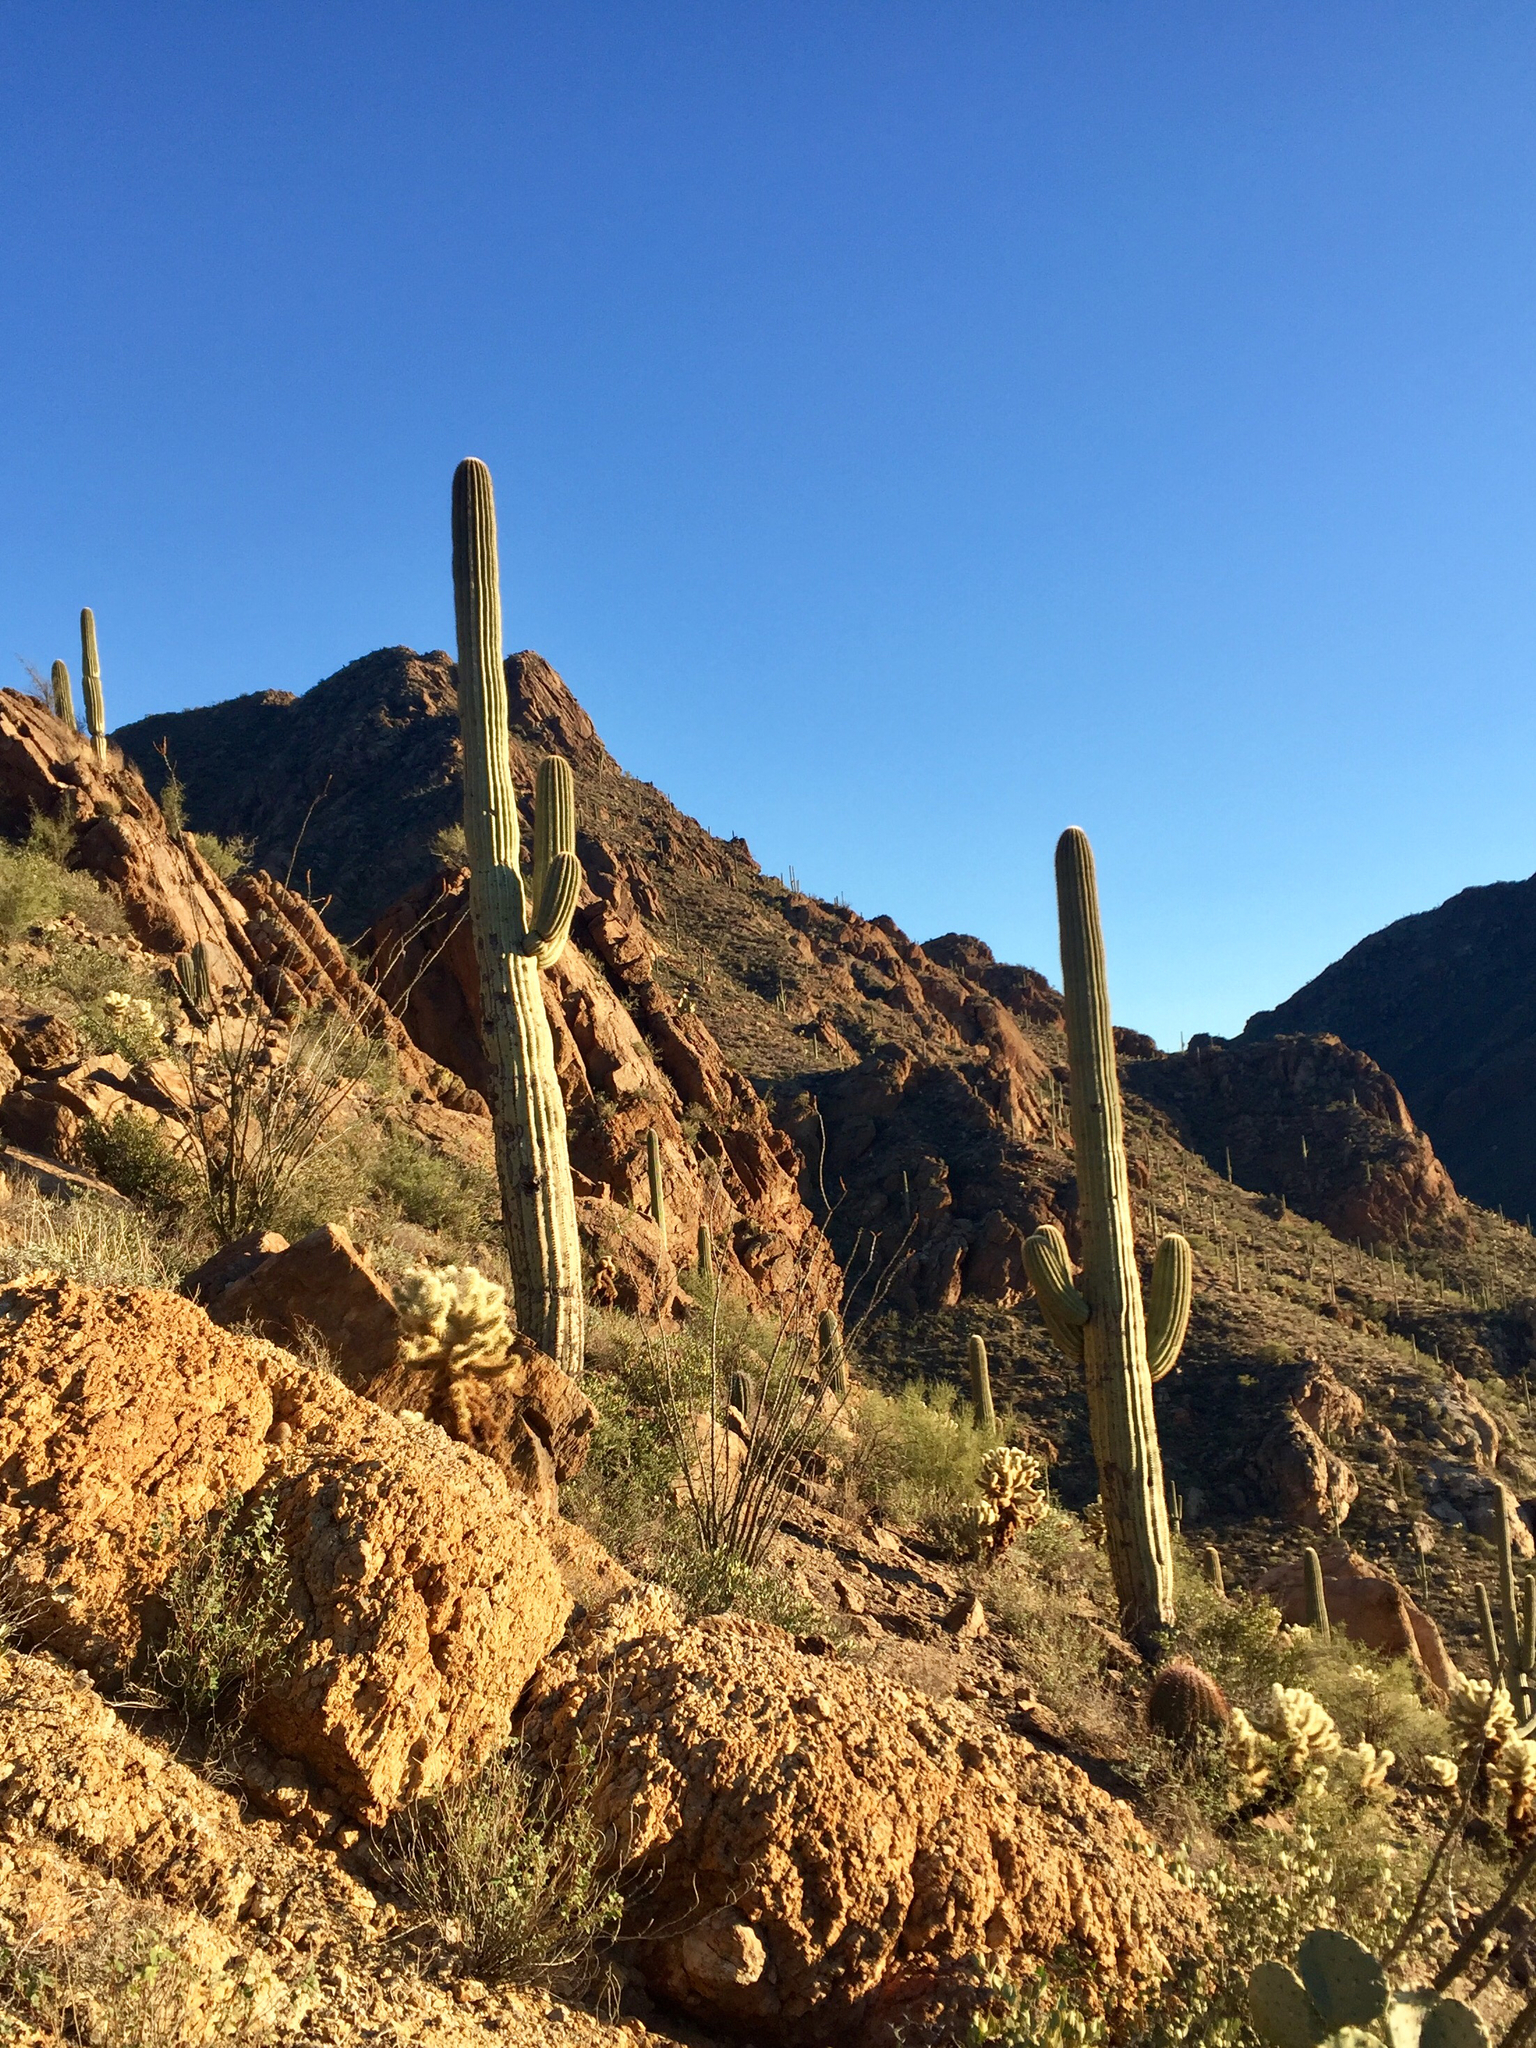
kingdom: Plantae
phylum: Tracheophyta
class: Magnoliopsida
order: Caryophyllales
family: Cactaceae
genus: Carnegiea
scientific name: Carnegiea gigantea
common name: Saguaro
